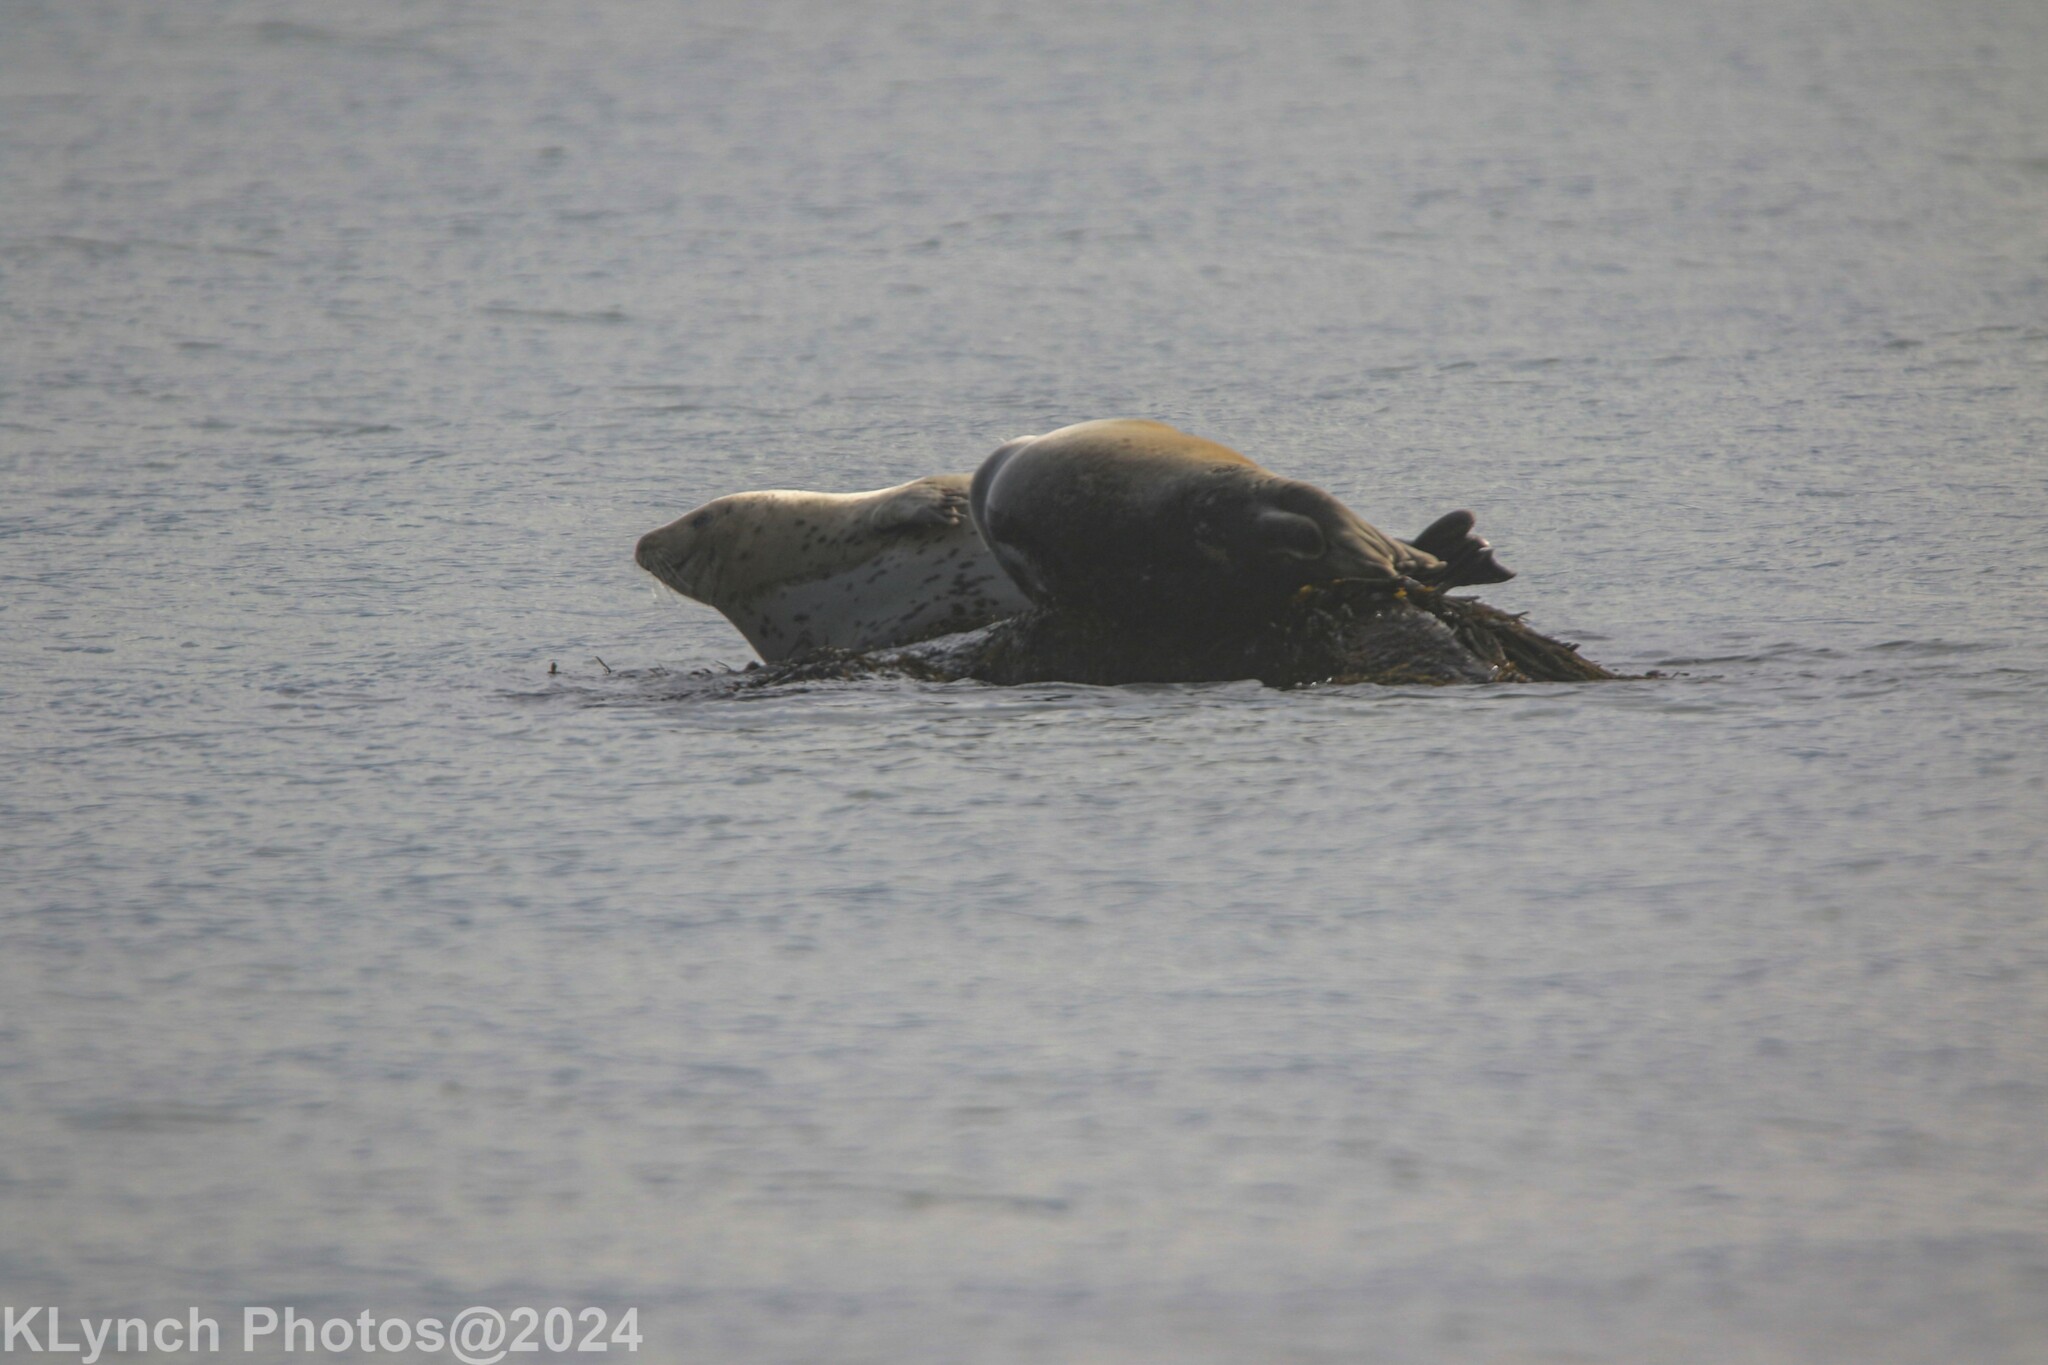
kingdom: Animalia
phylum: Chordata
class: Mammalia
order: Carnivora
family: Phocidae
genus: Phoca
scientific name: Phoca vitulina
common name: Harbor seal
